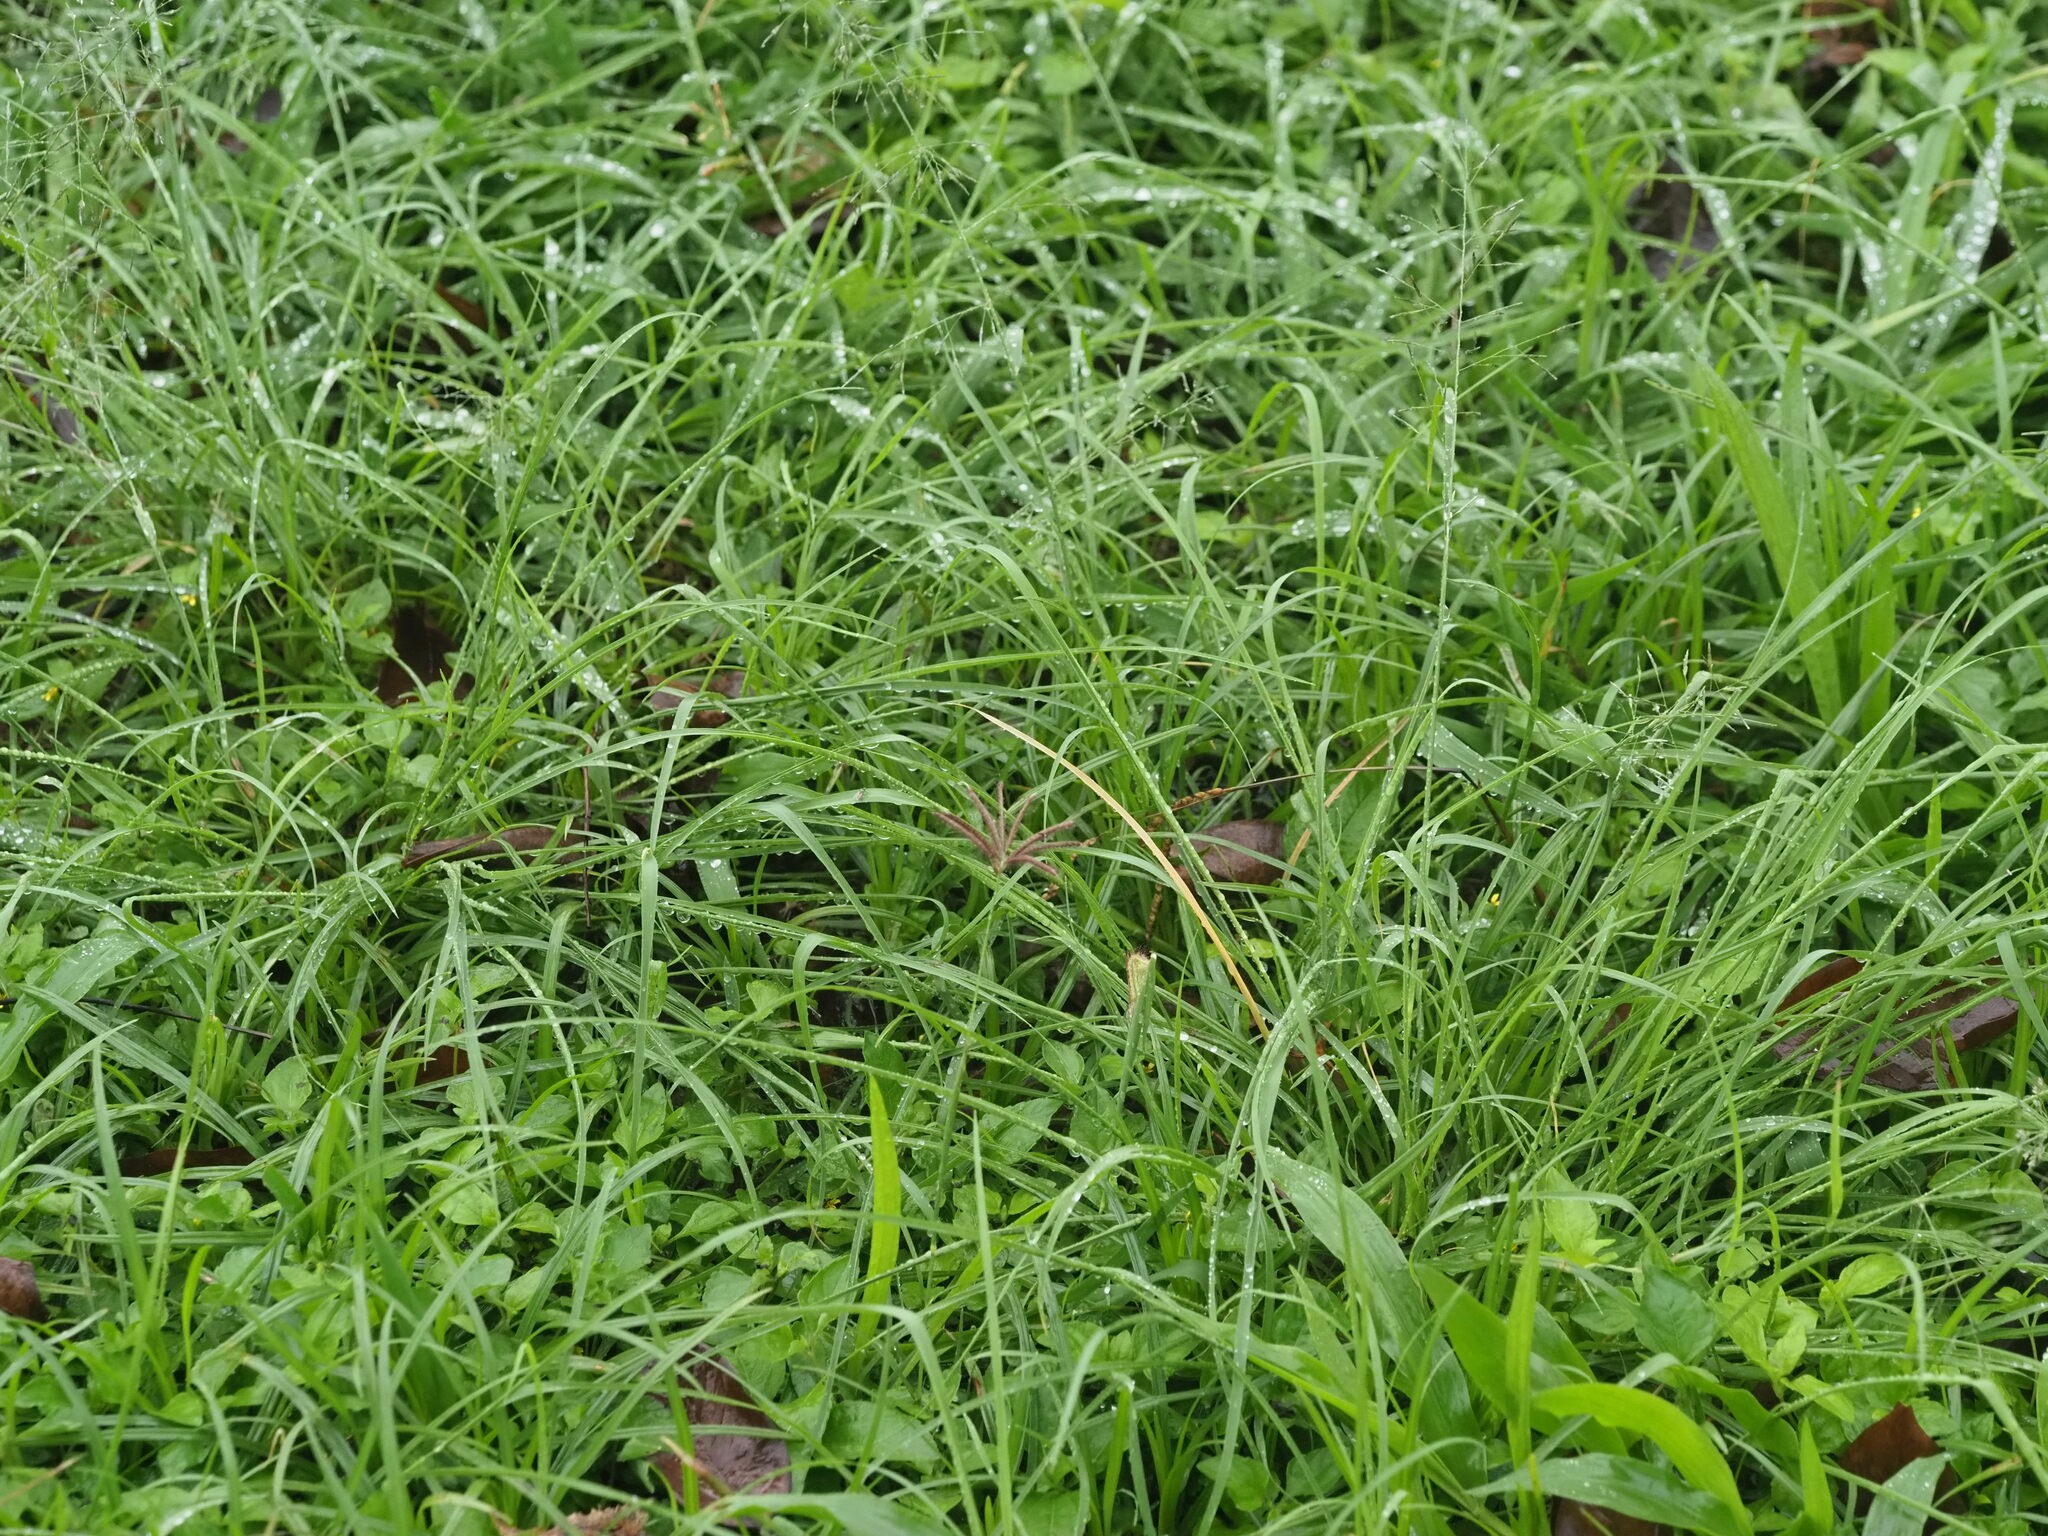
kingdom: Plantae
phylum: Tracheophyta
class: Liliopsida
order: Poales
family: Poaceae
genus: Eragrostis
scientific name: Eragrostis tenuifolia
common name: Elastic grass
